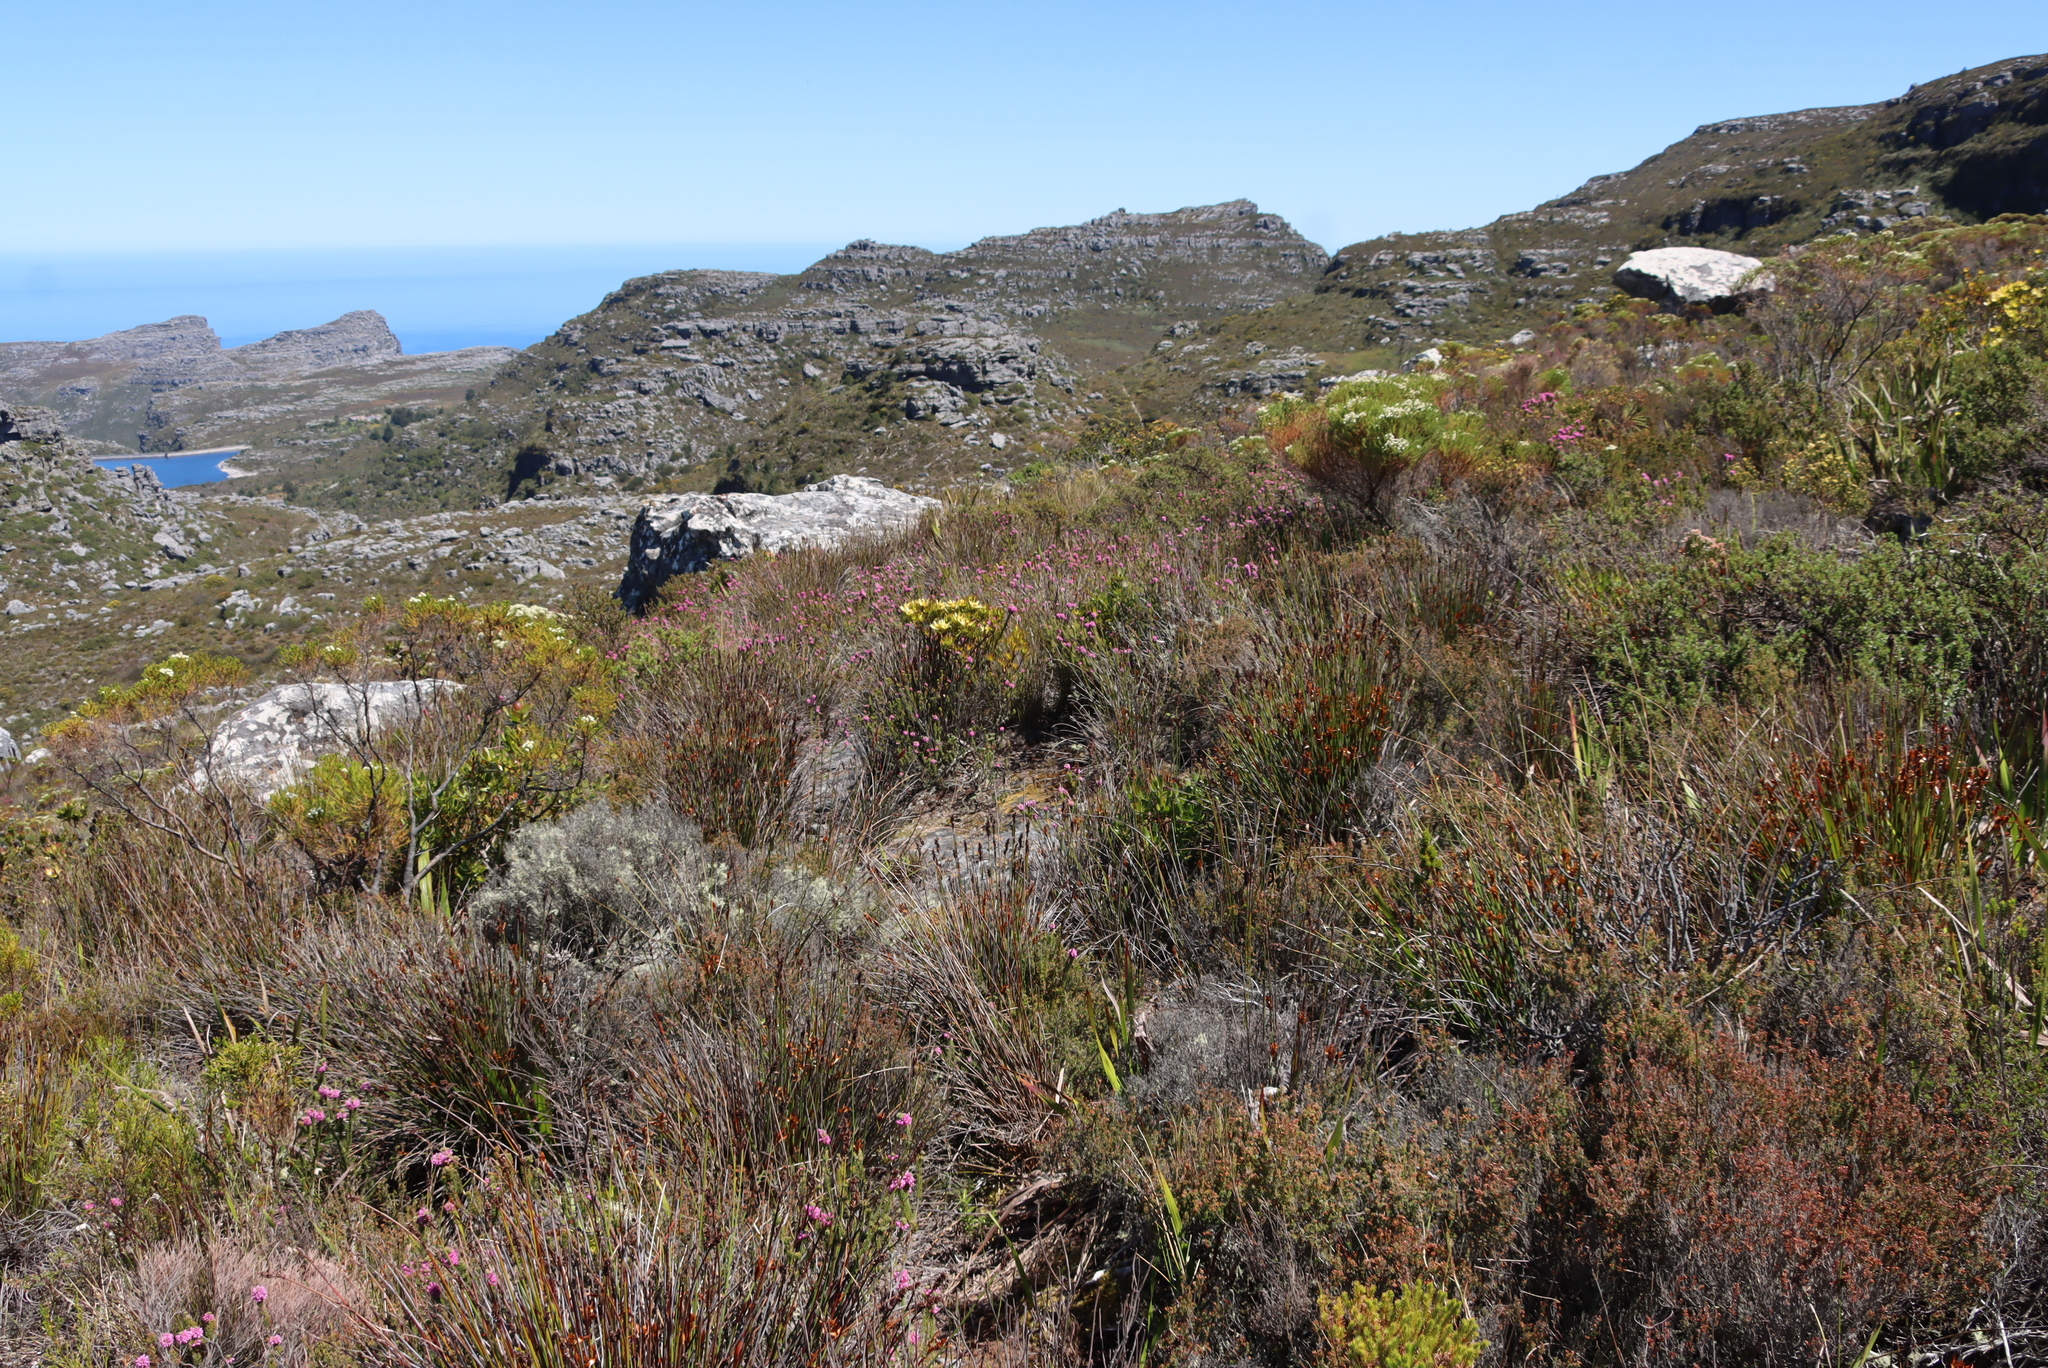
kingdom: Plantae
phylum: Tracheophyta
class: Magnoliopsida
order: Ericales
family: Ericaceae
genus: Erica
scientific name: Erica empetrina
